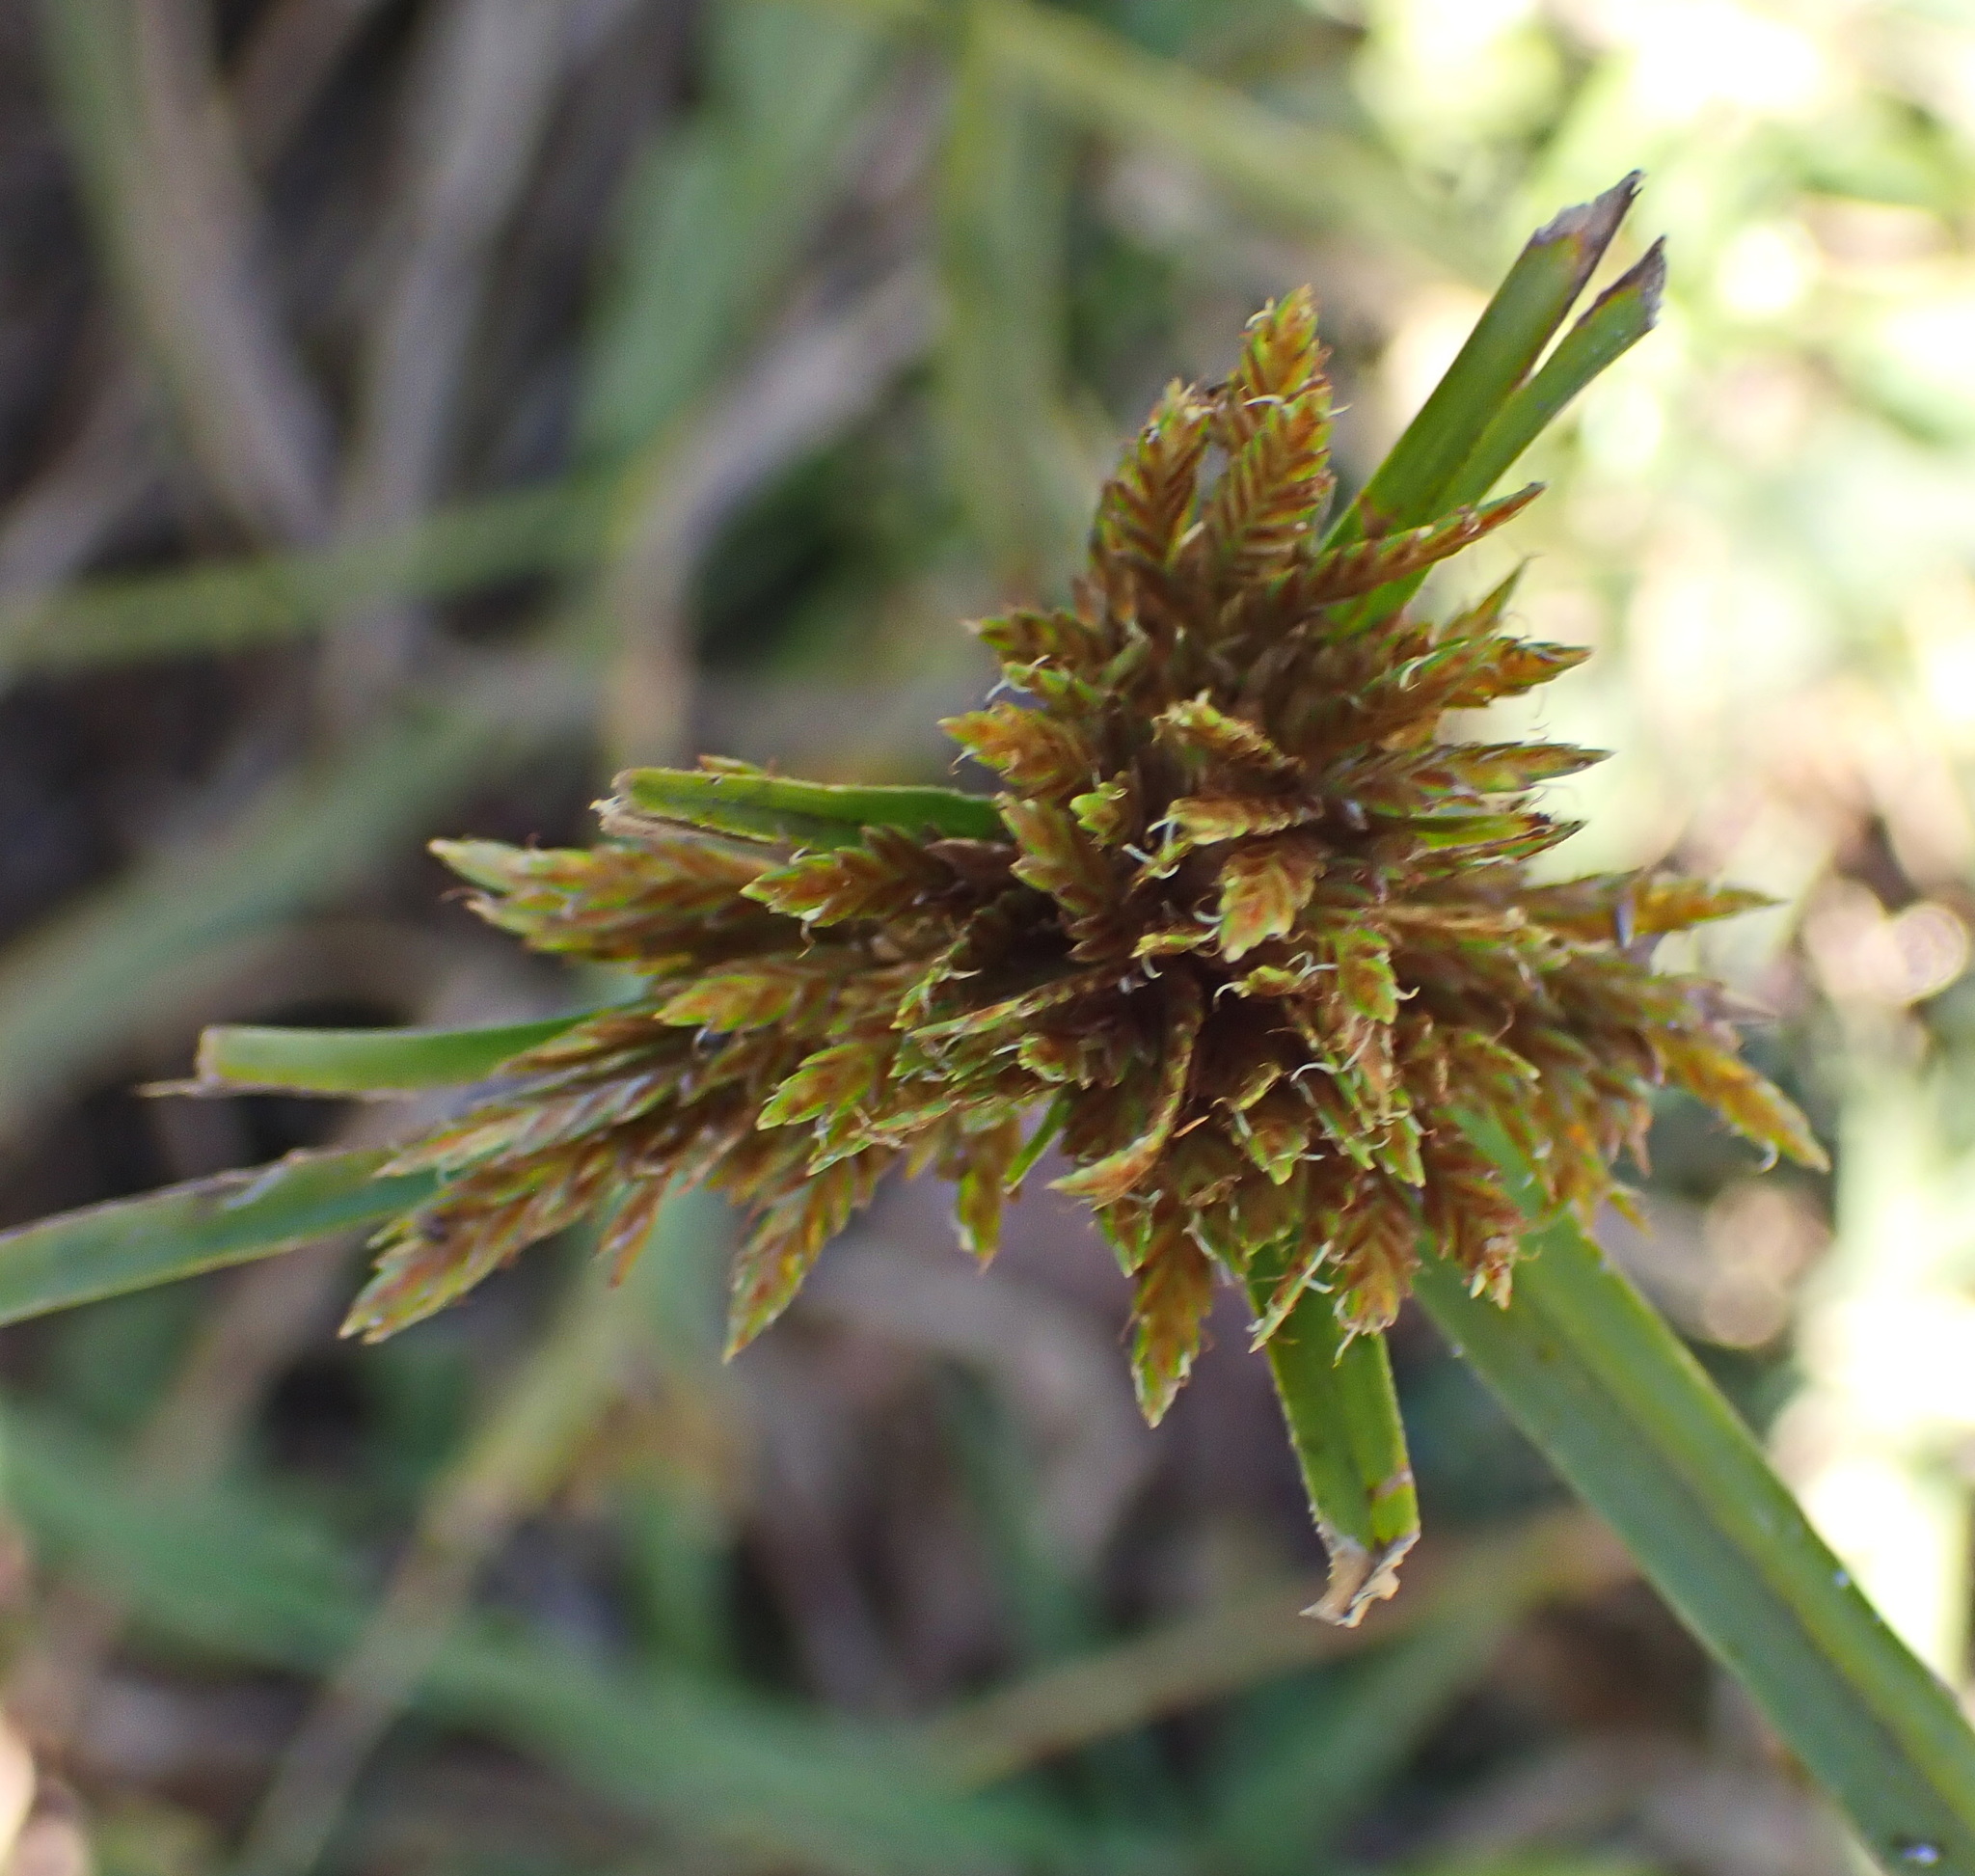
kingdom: Plantae
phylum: Tracheophyta
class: Liliopsida
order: Poales
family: Cyperaceae
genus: Cyperus
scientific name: Cyperus polystachyos
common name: Bunchy flat sedge
